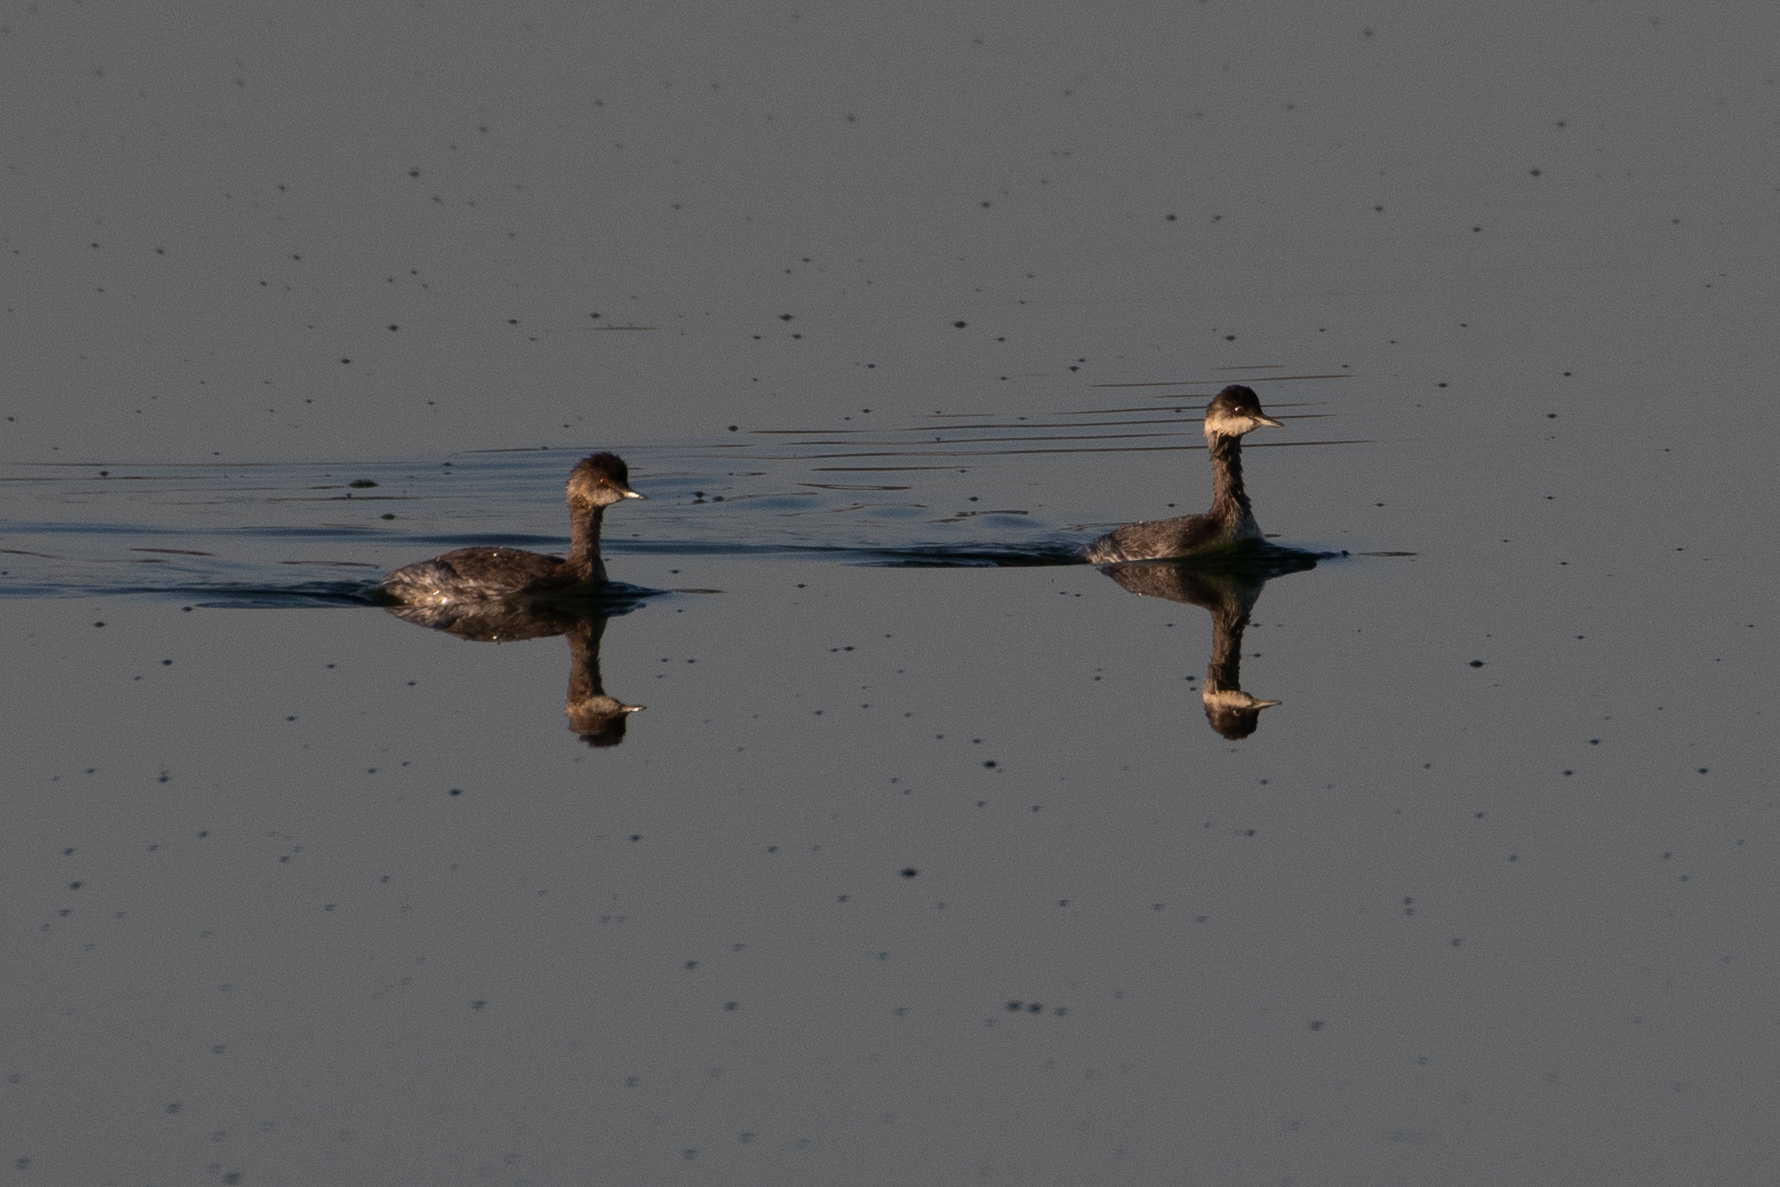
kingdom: Animalia
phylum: Chordata
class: Aves
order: Podicipediformes
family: Podicipedidae
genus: Podiceps
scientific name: Podiceps nigricollis
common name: Black-necked grebe
